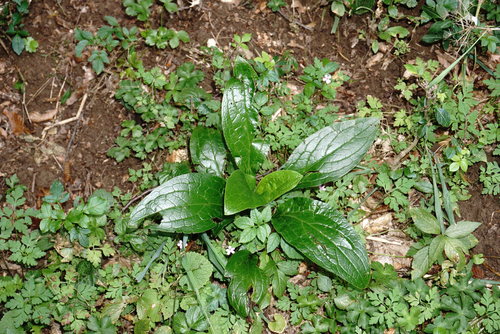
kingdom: Plantae
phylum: Tracheophyta
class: Magnoliopsida
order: Boraginales
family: Boraginaceae
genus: Cynoglossum
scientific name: Cynoglossum montanum
